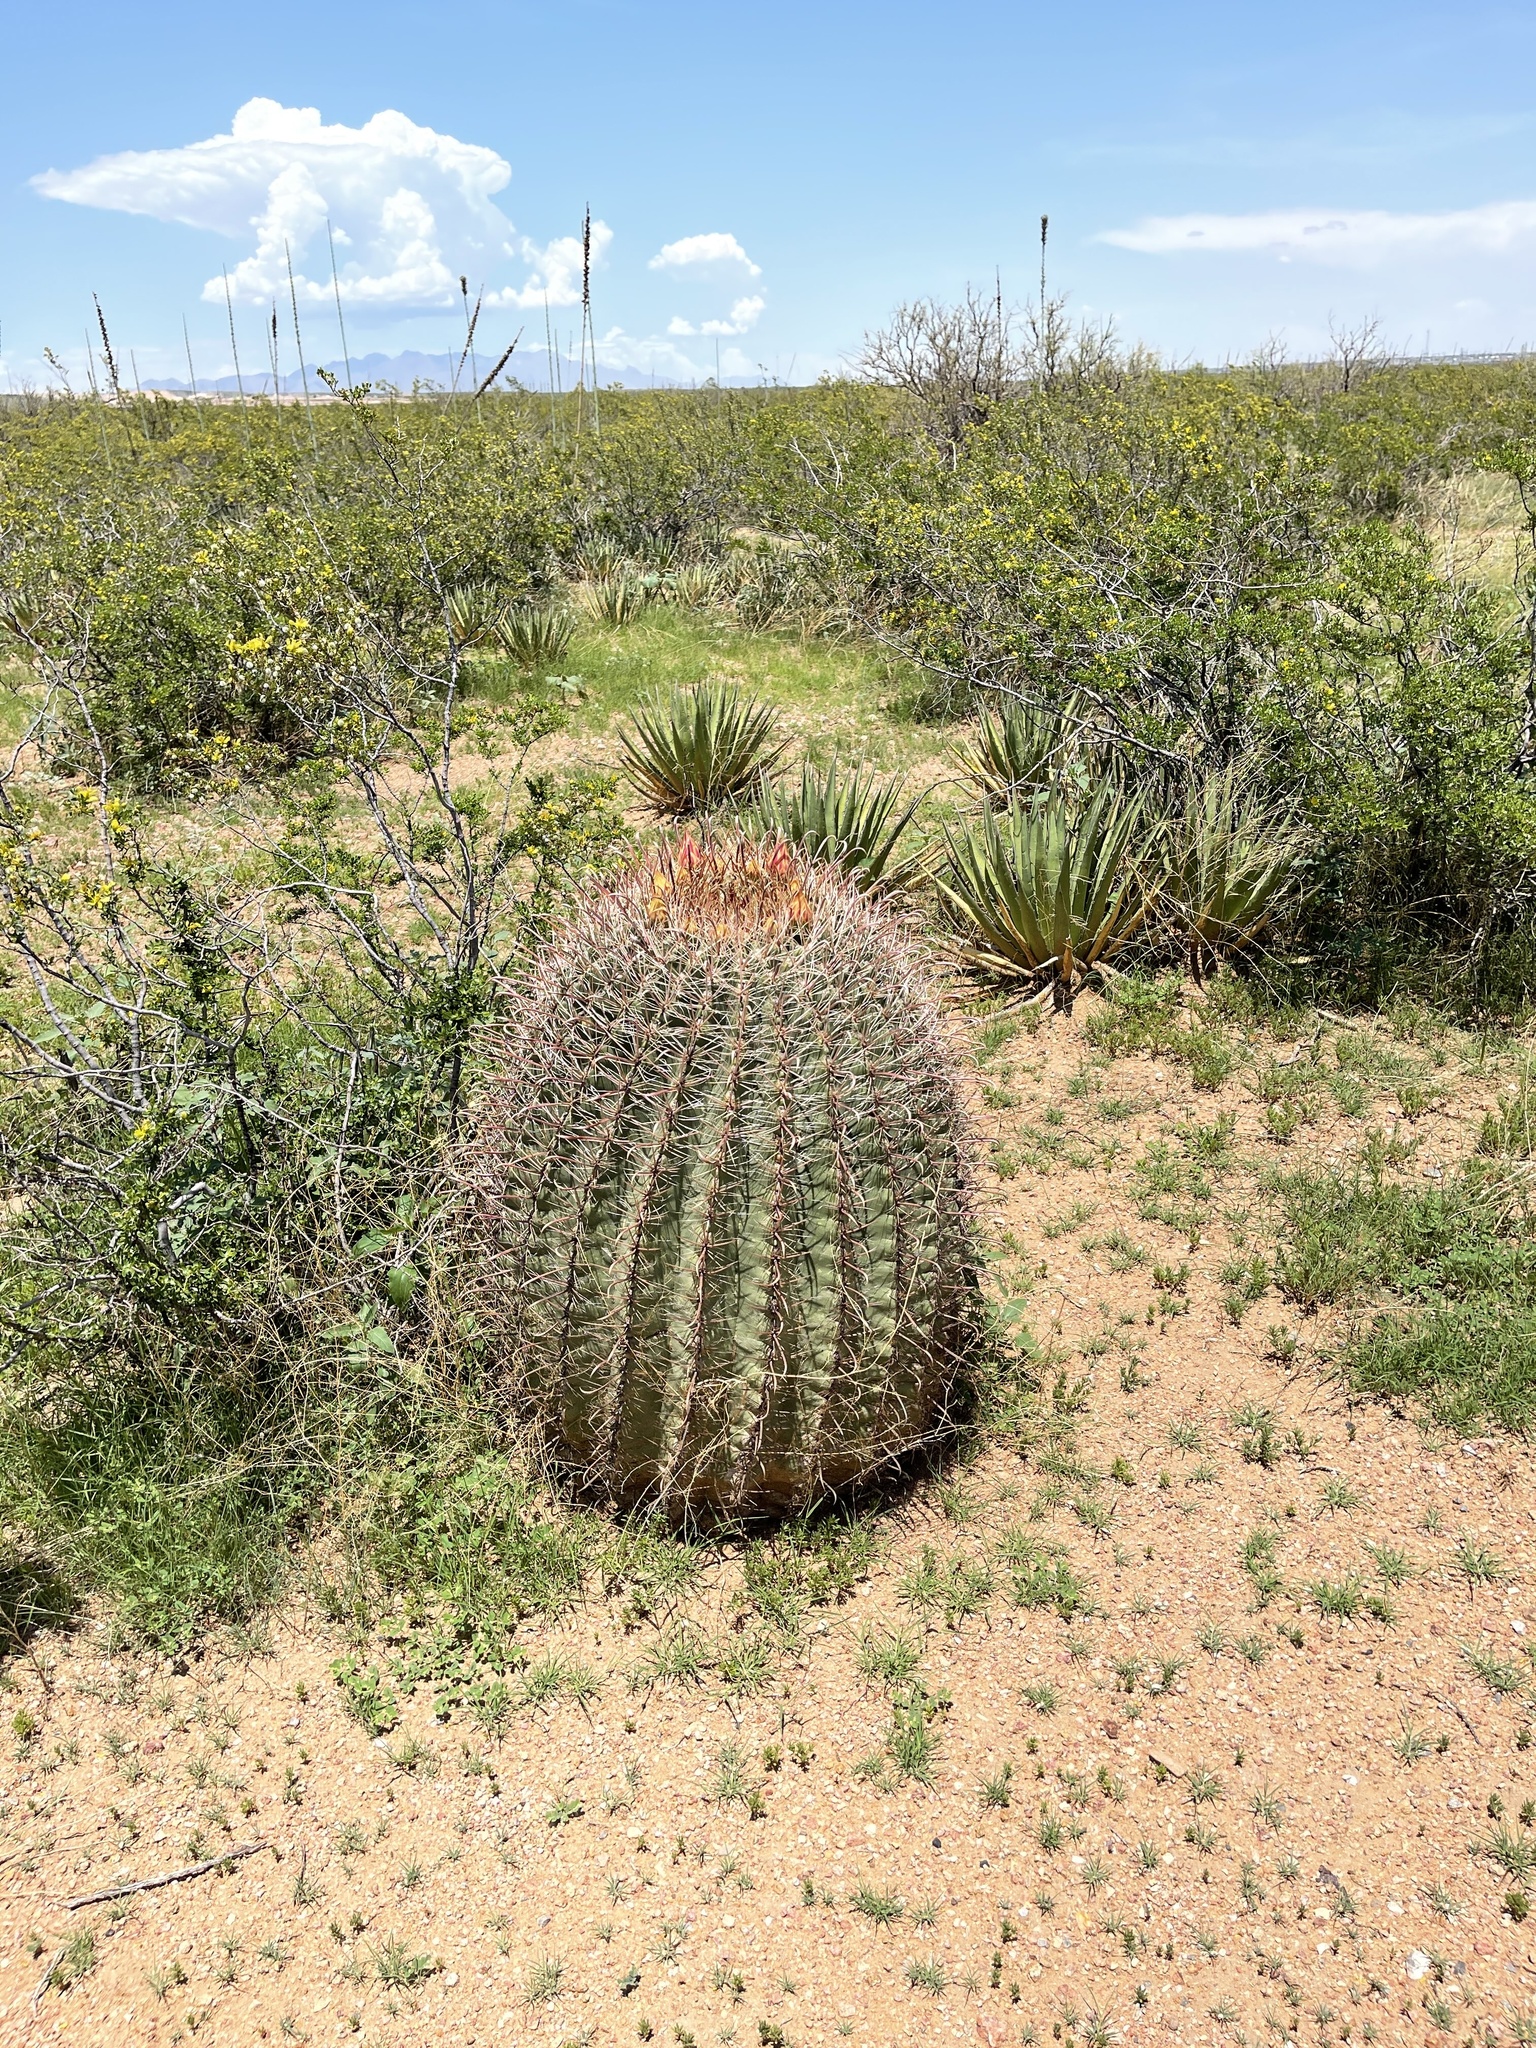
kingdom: Plantae
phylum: Tracheophyta
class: Magnoliopsida
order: Caryophyllales
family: Cactaceae
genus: Ferocactus
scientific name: Ferocactus wislizeni
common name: Candy barrel cactus
